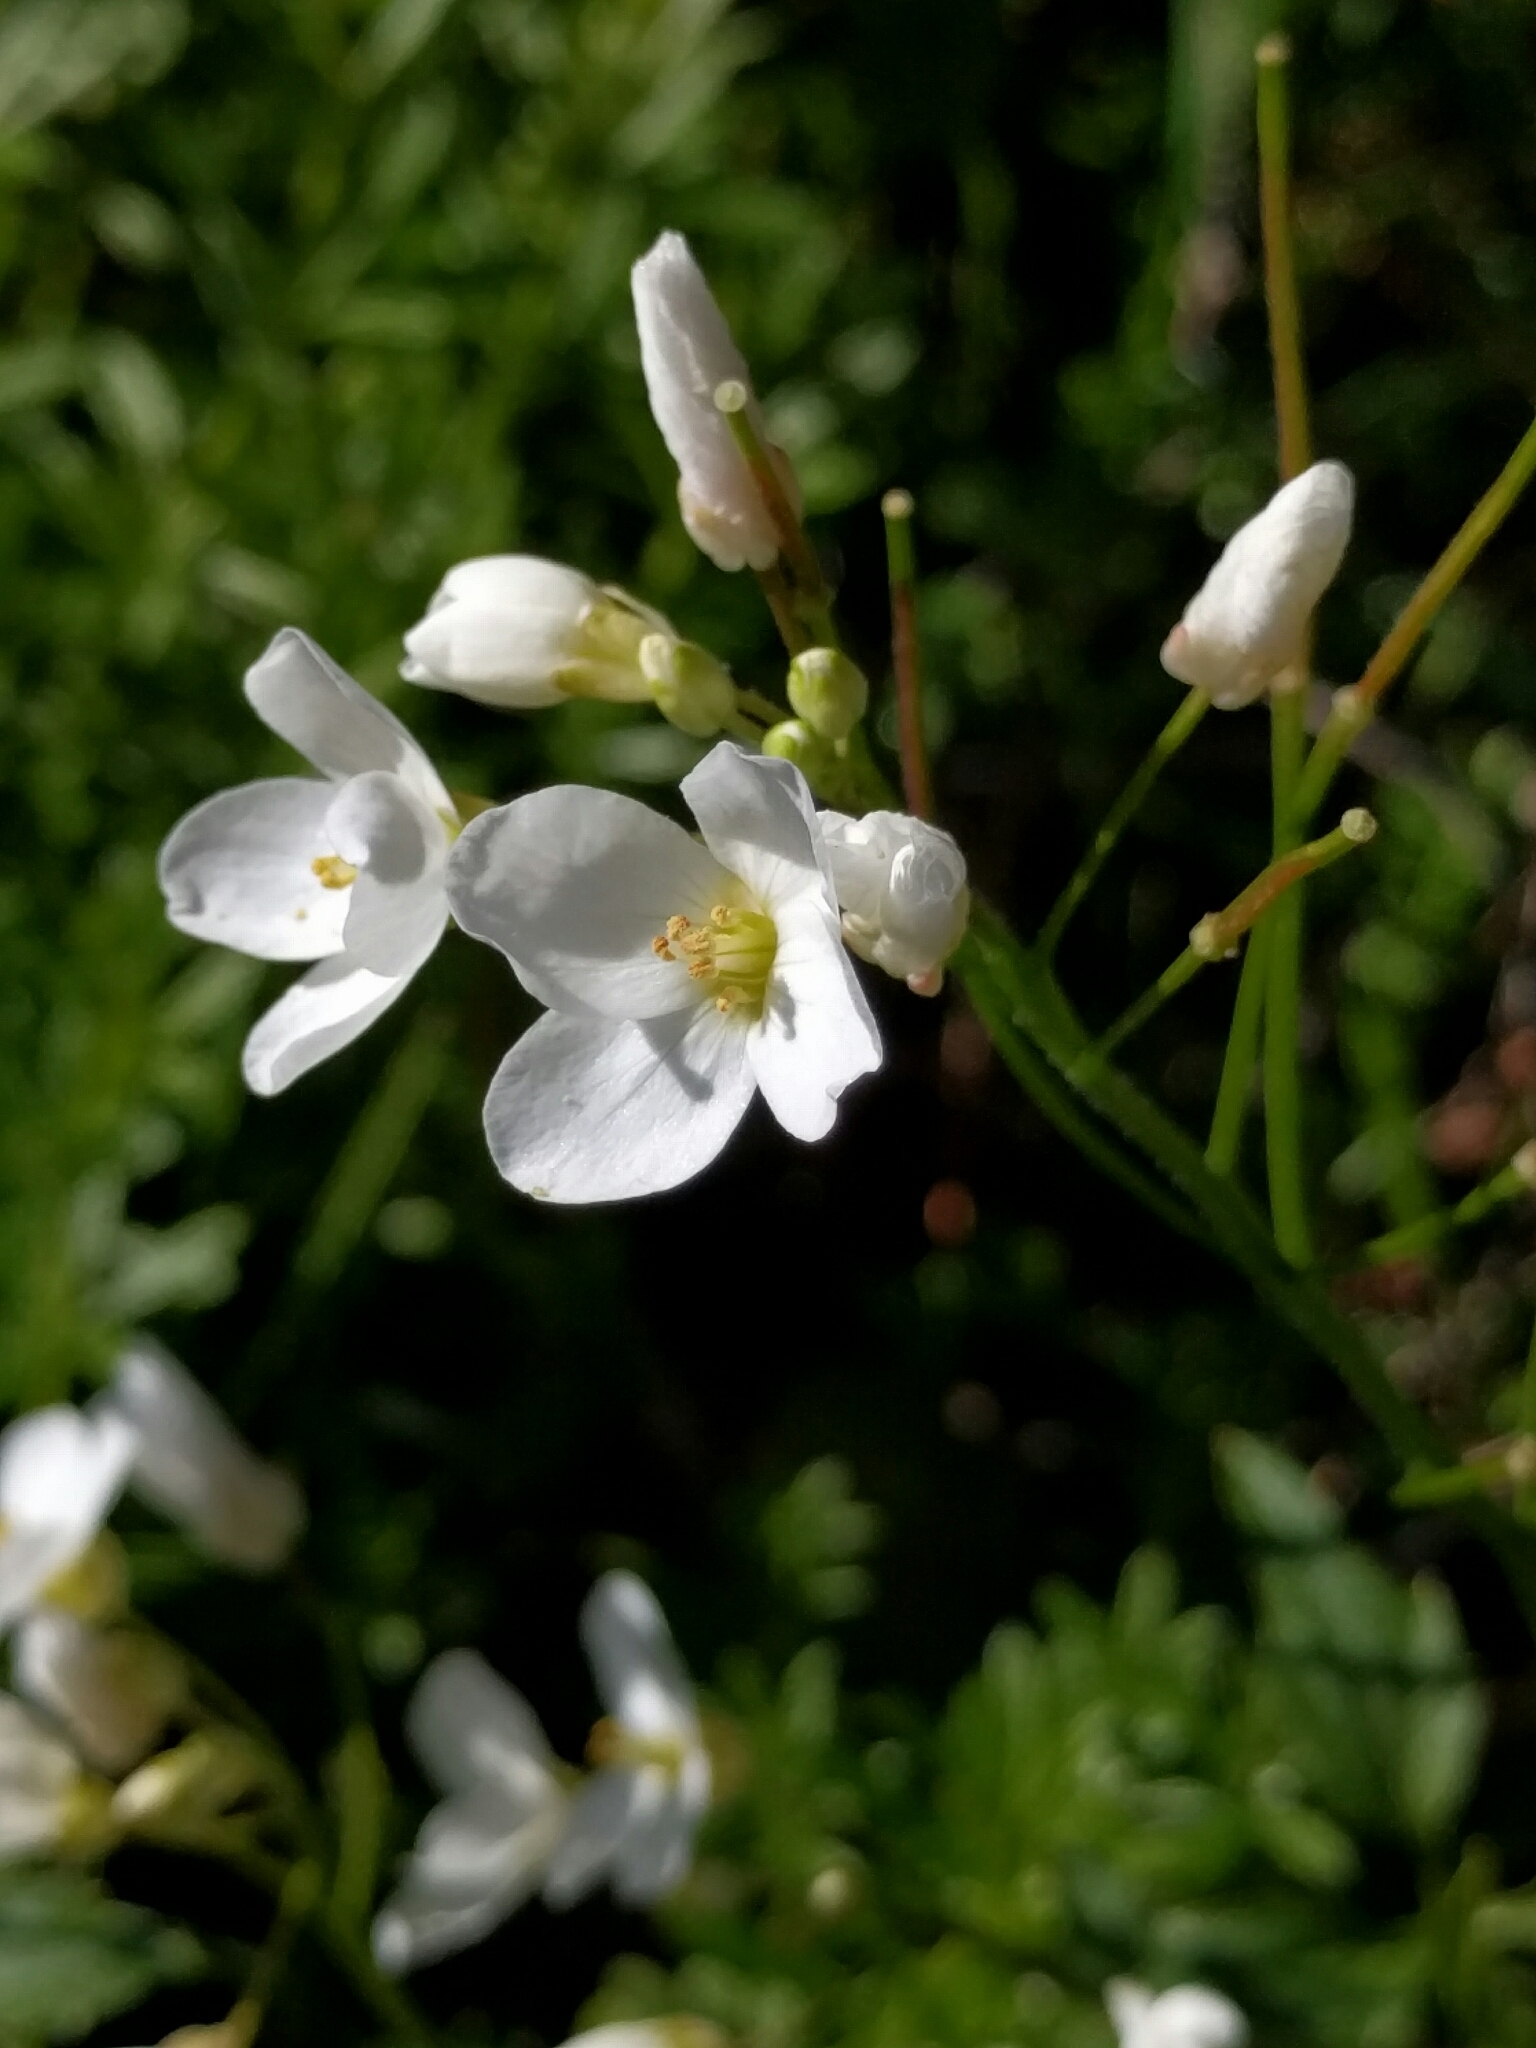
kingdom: Plantae
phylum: Tracheophyta
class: Magnoliopsida
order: Brassicales
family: Brassicaceae
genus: Cardamine
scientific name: Cardamine californica
